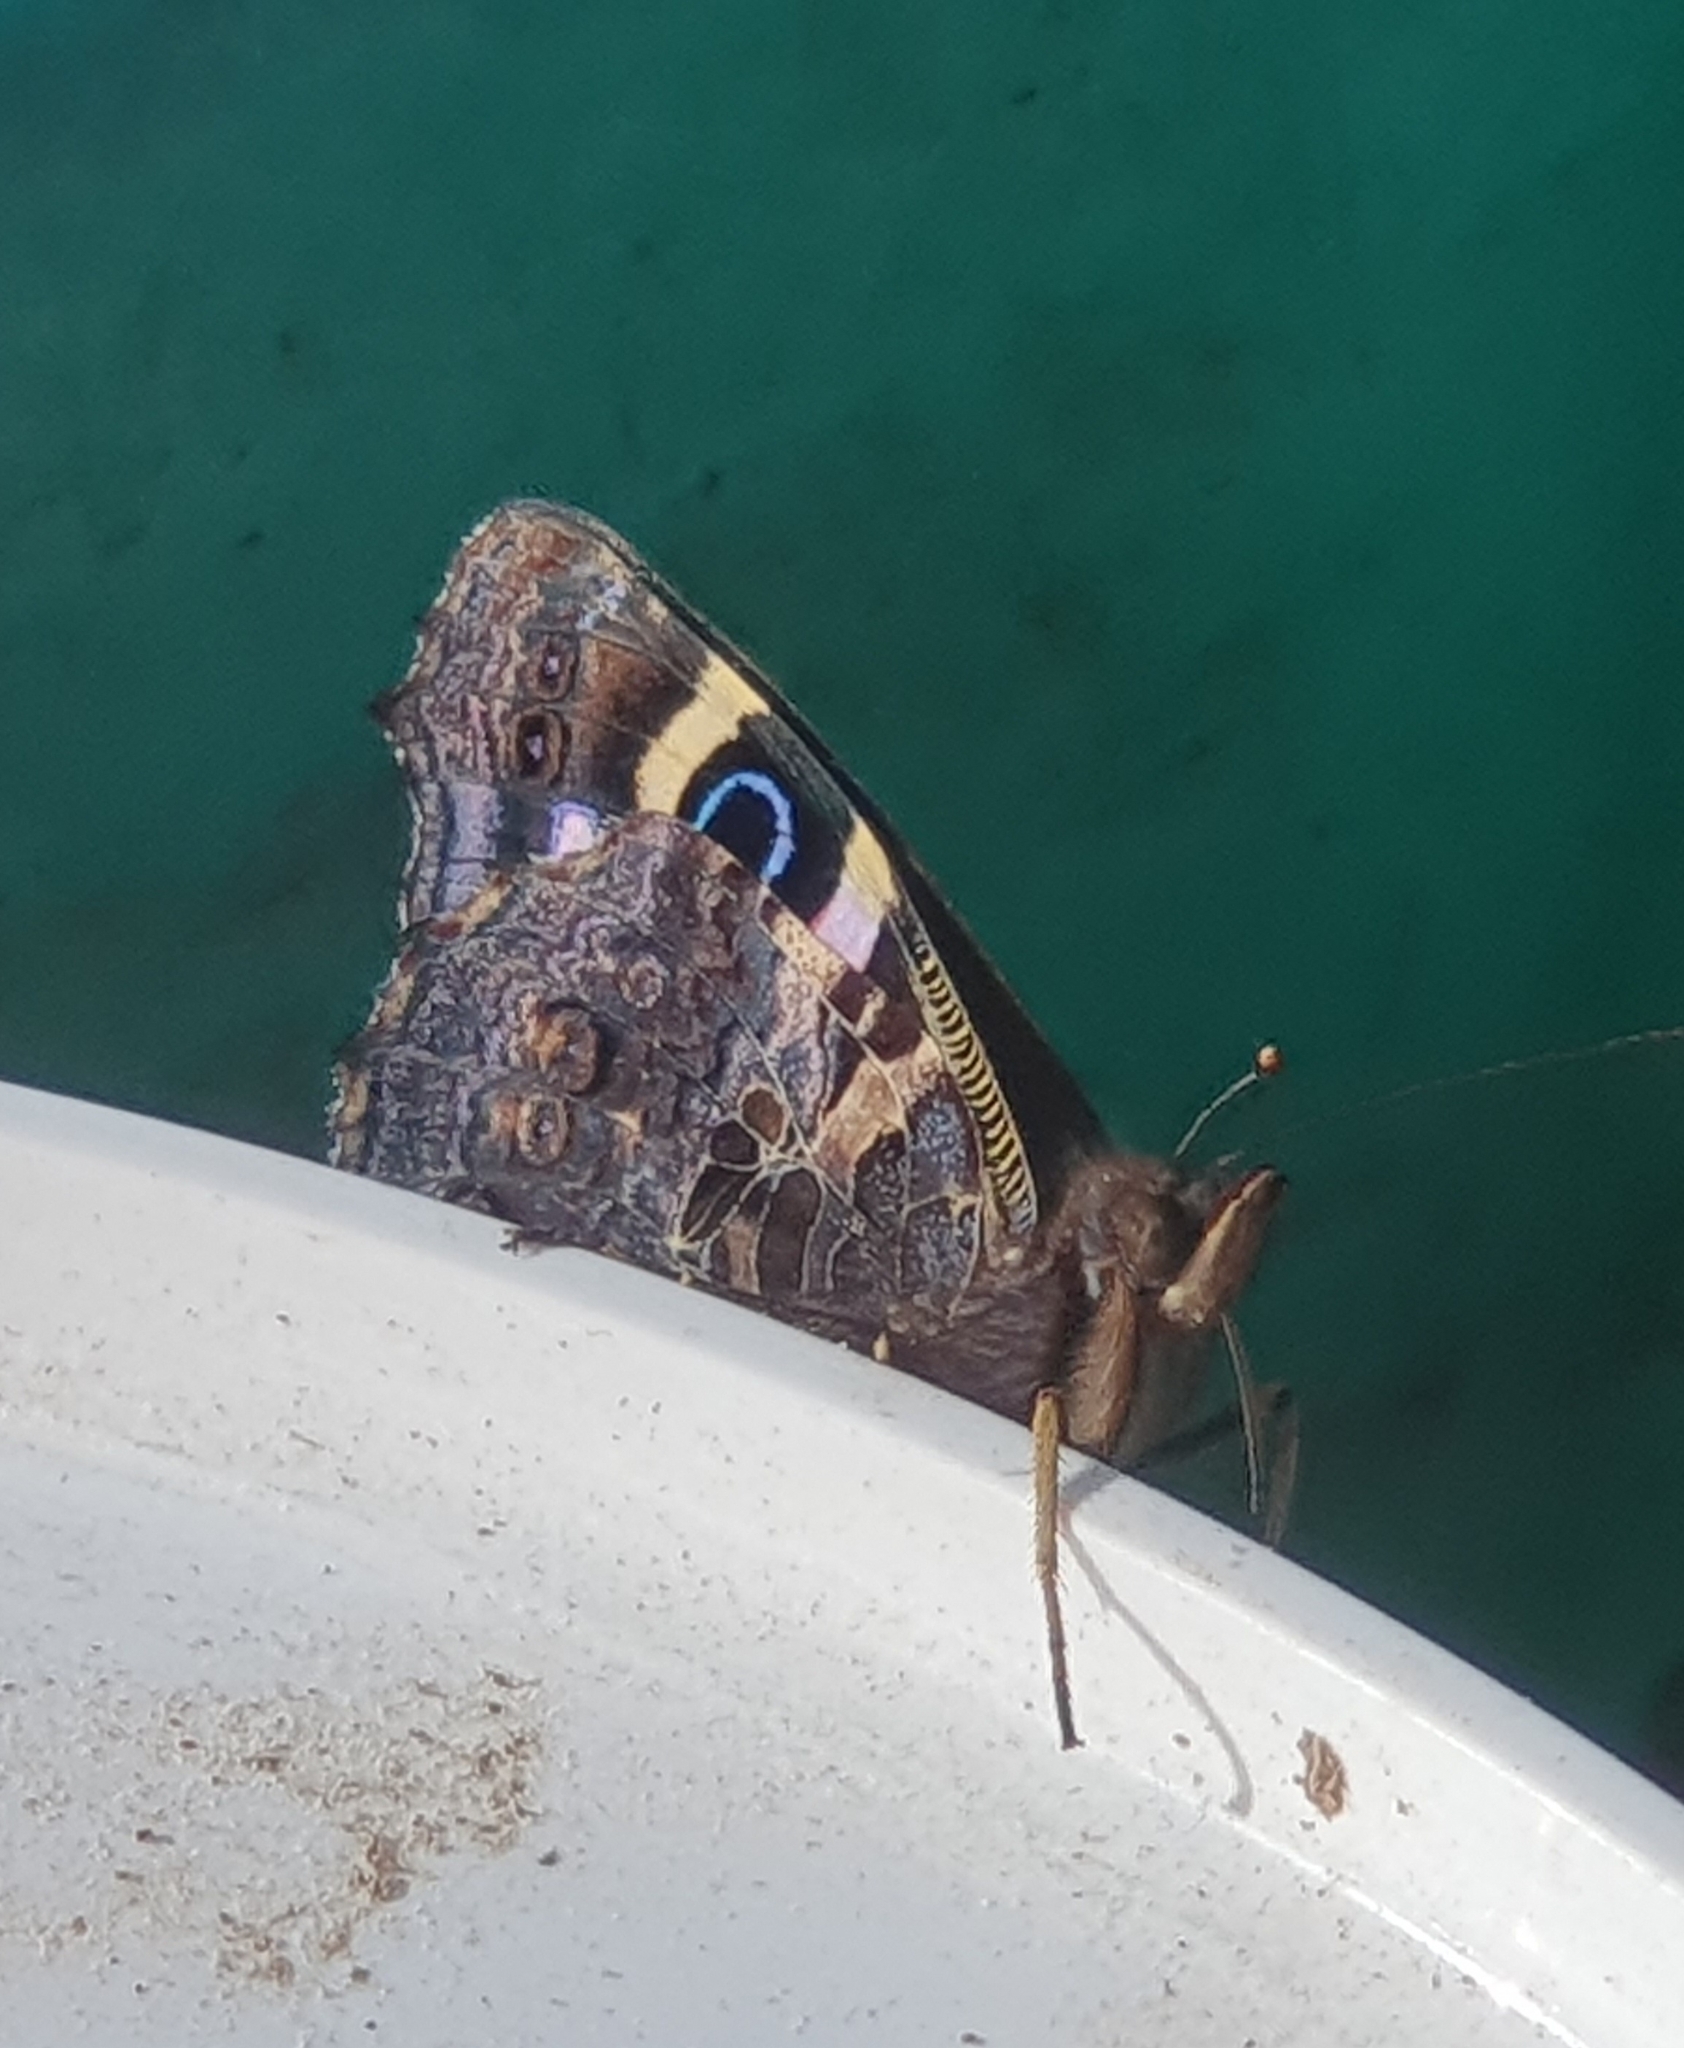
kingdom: Animalia
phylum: Arthropoda
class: Insecta
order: Lepidoptera
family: Nymphalidae
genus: Vanessa
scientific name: Vanessa gonerilla
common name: New zealand red admiral
